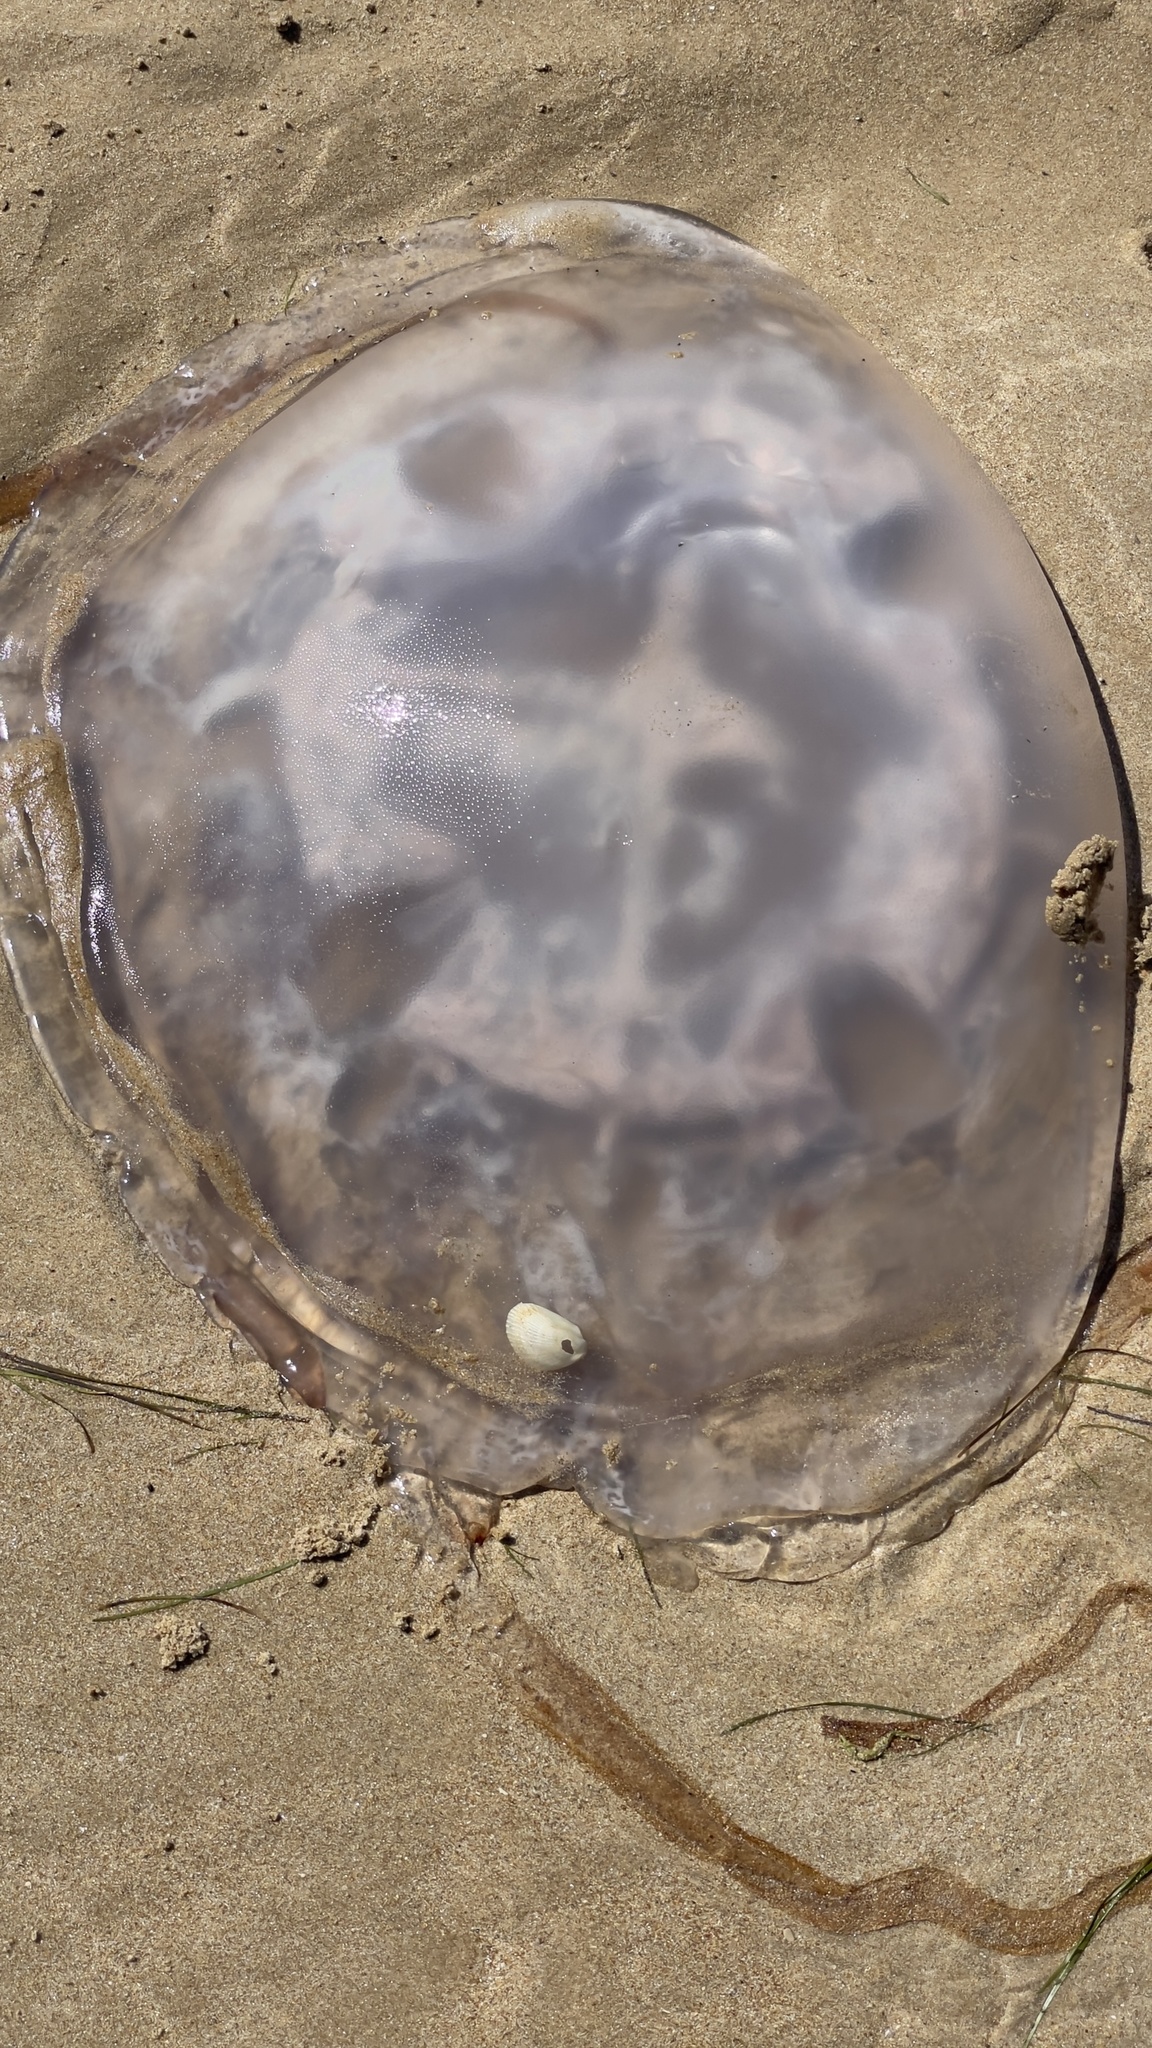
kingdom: Animalia
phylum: Cnidaria
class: Scyphozoa
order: Rhizostomeae
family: Rhizostomatidae
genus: Rhizostoma
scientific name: Rhizostoma luteum
